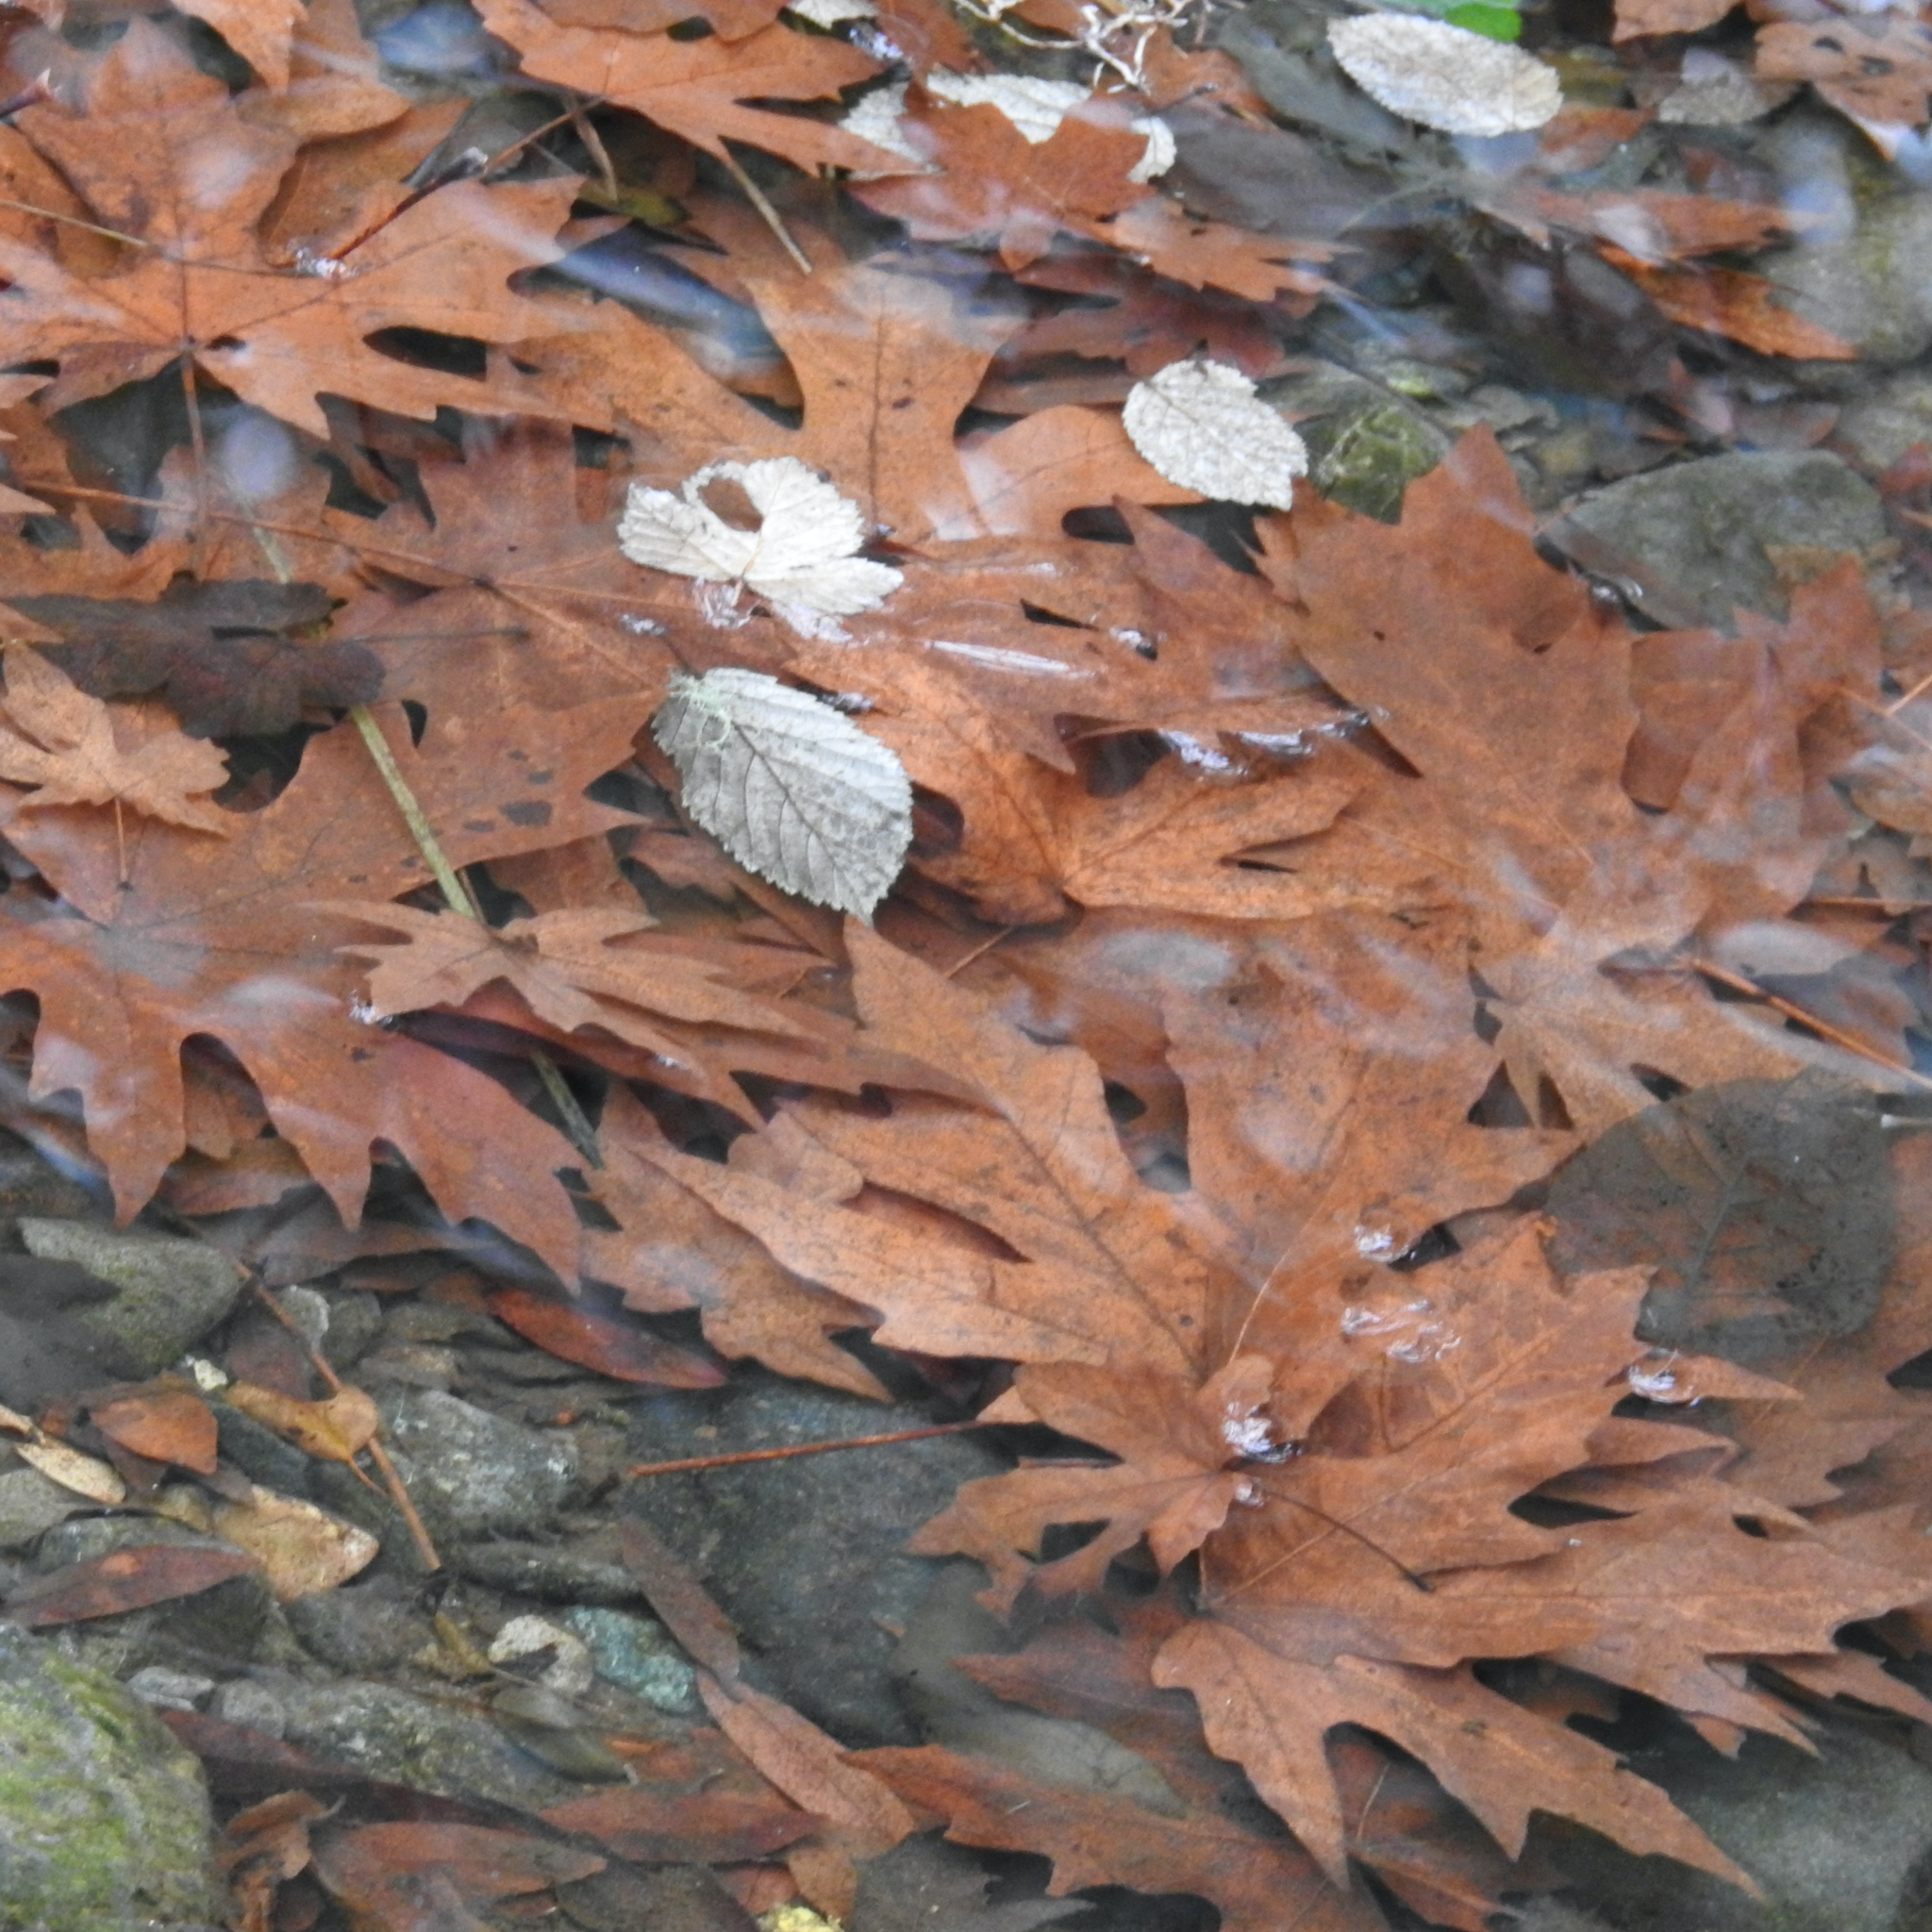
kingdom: Plantae
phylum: Tracheophyta
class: Magnoliopsida
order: Sapindales
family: Sapindaceae
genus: Acer
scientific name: Acer macrophyllum
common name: Oregon maple
